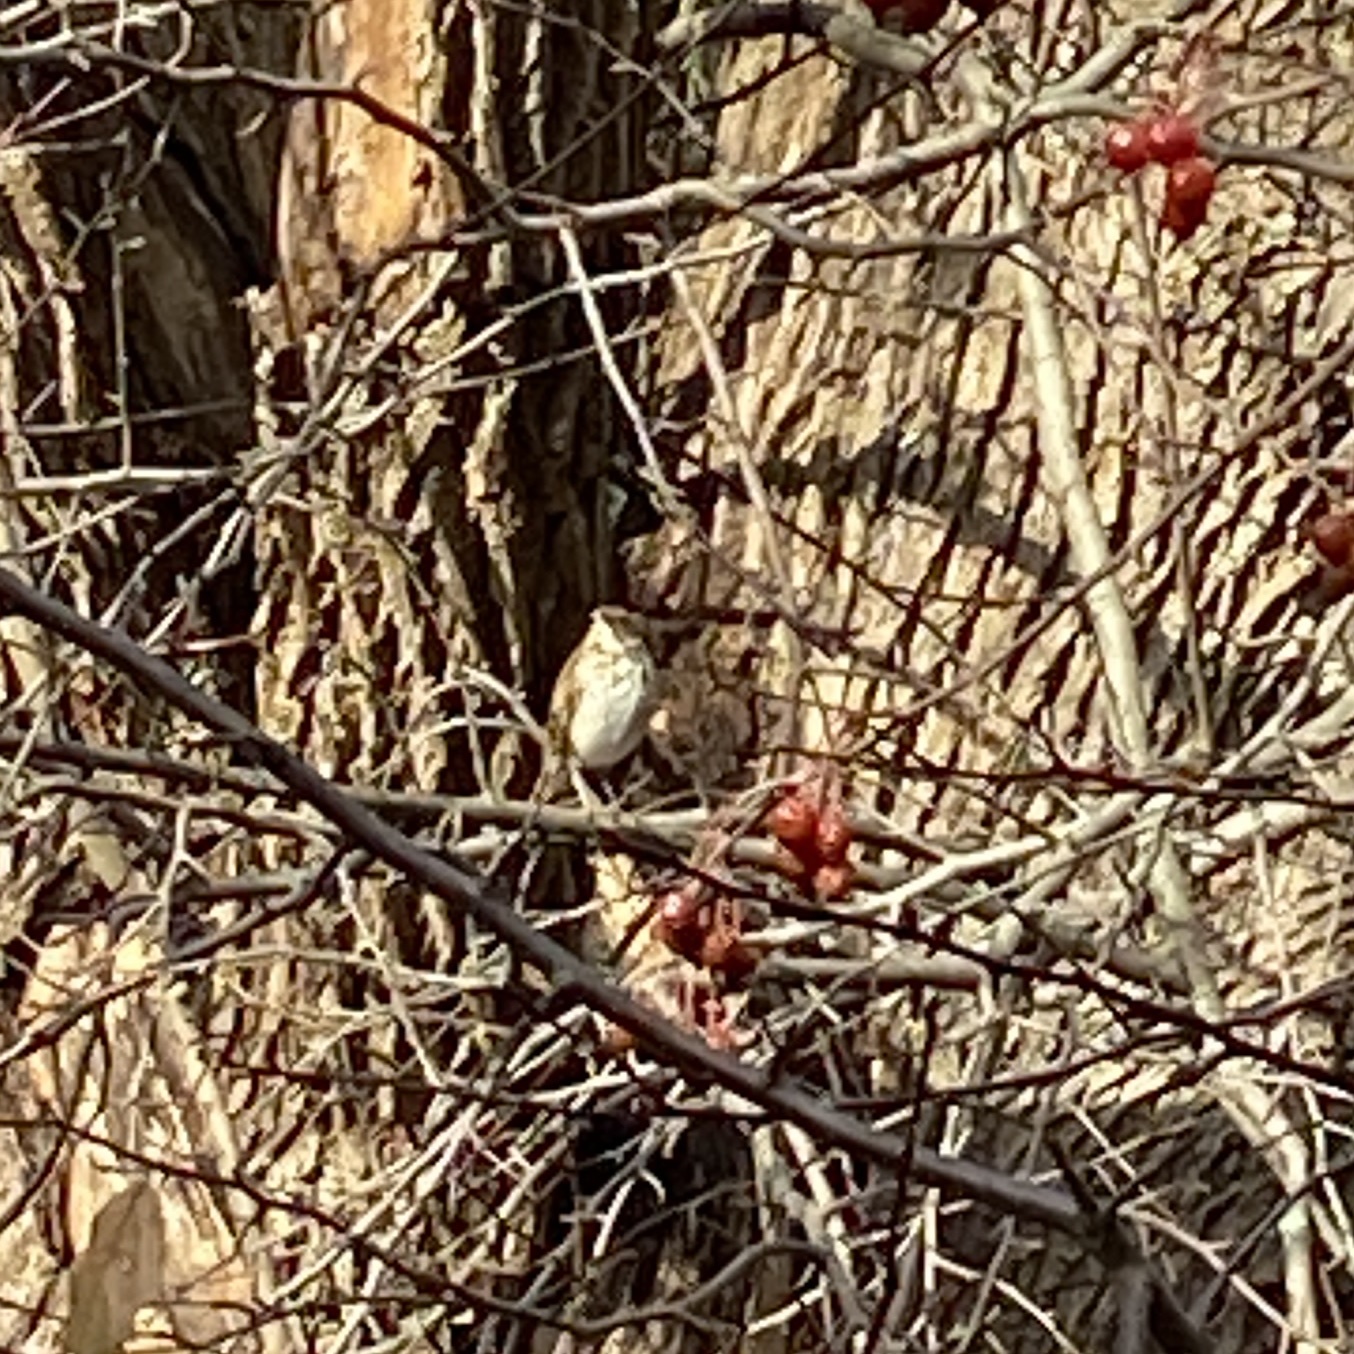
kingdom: Animalia
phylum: Chordata
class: Aves
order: Passeriformes
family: Turdidae
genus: Catharus
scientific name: Catharus guttatus
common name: Hermit thrush
